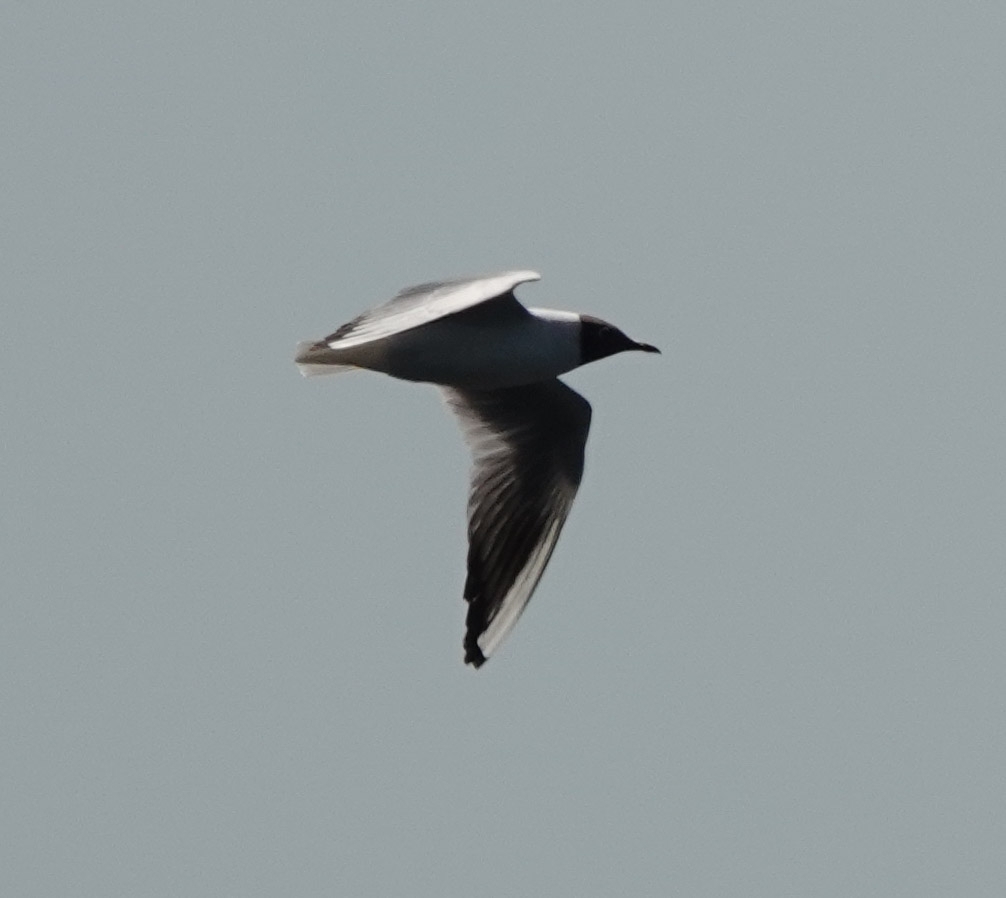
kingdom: Animalia
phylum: Chordata
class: Aves
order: Charadriiformes
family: Laridae
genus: Chroicocephalus
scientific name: Chroicocephalus ridibundus
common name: Black-headed gull
